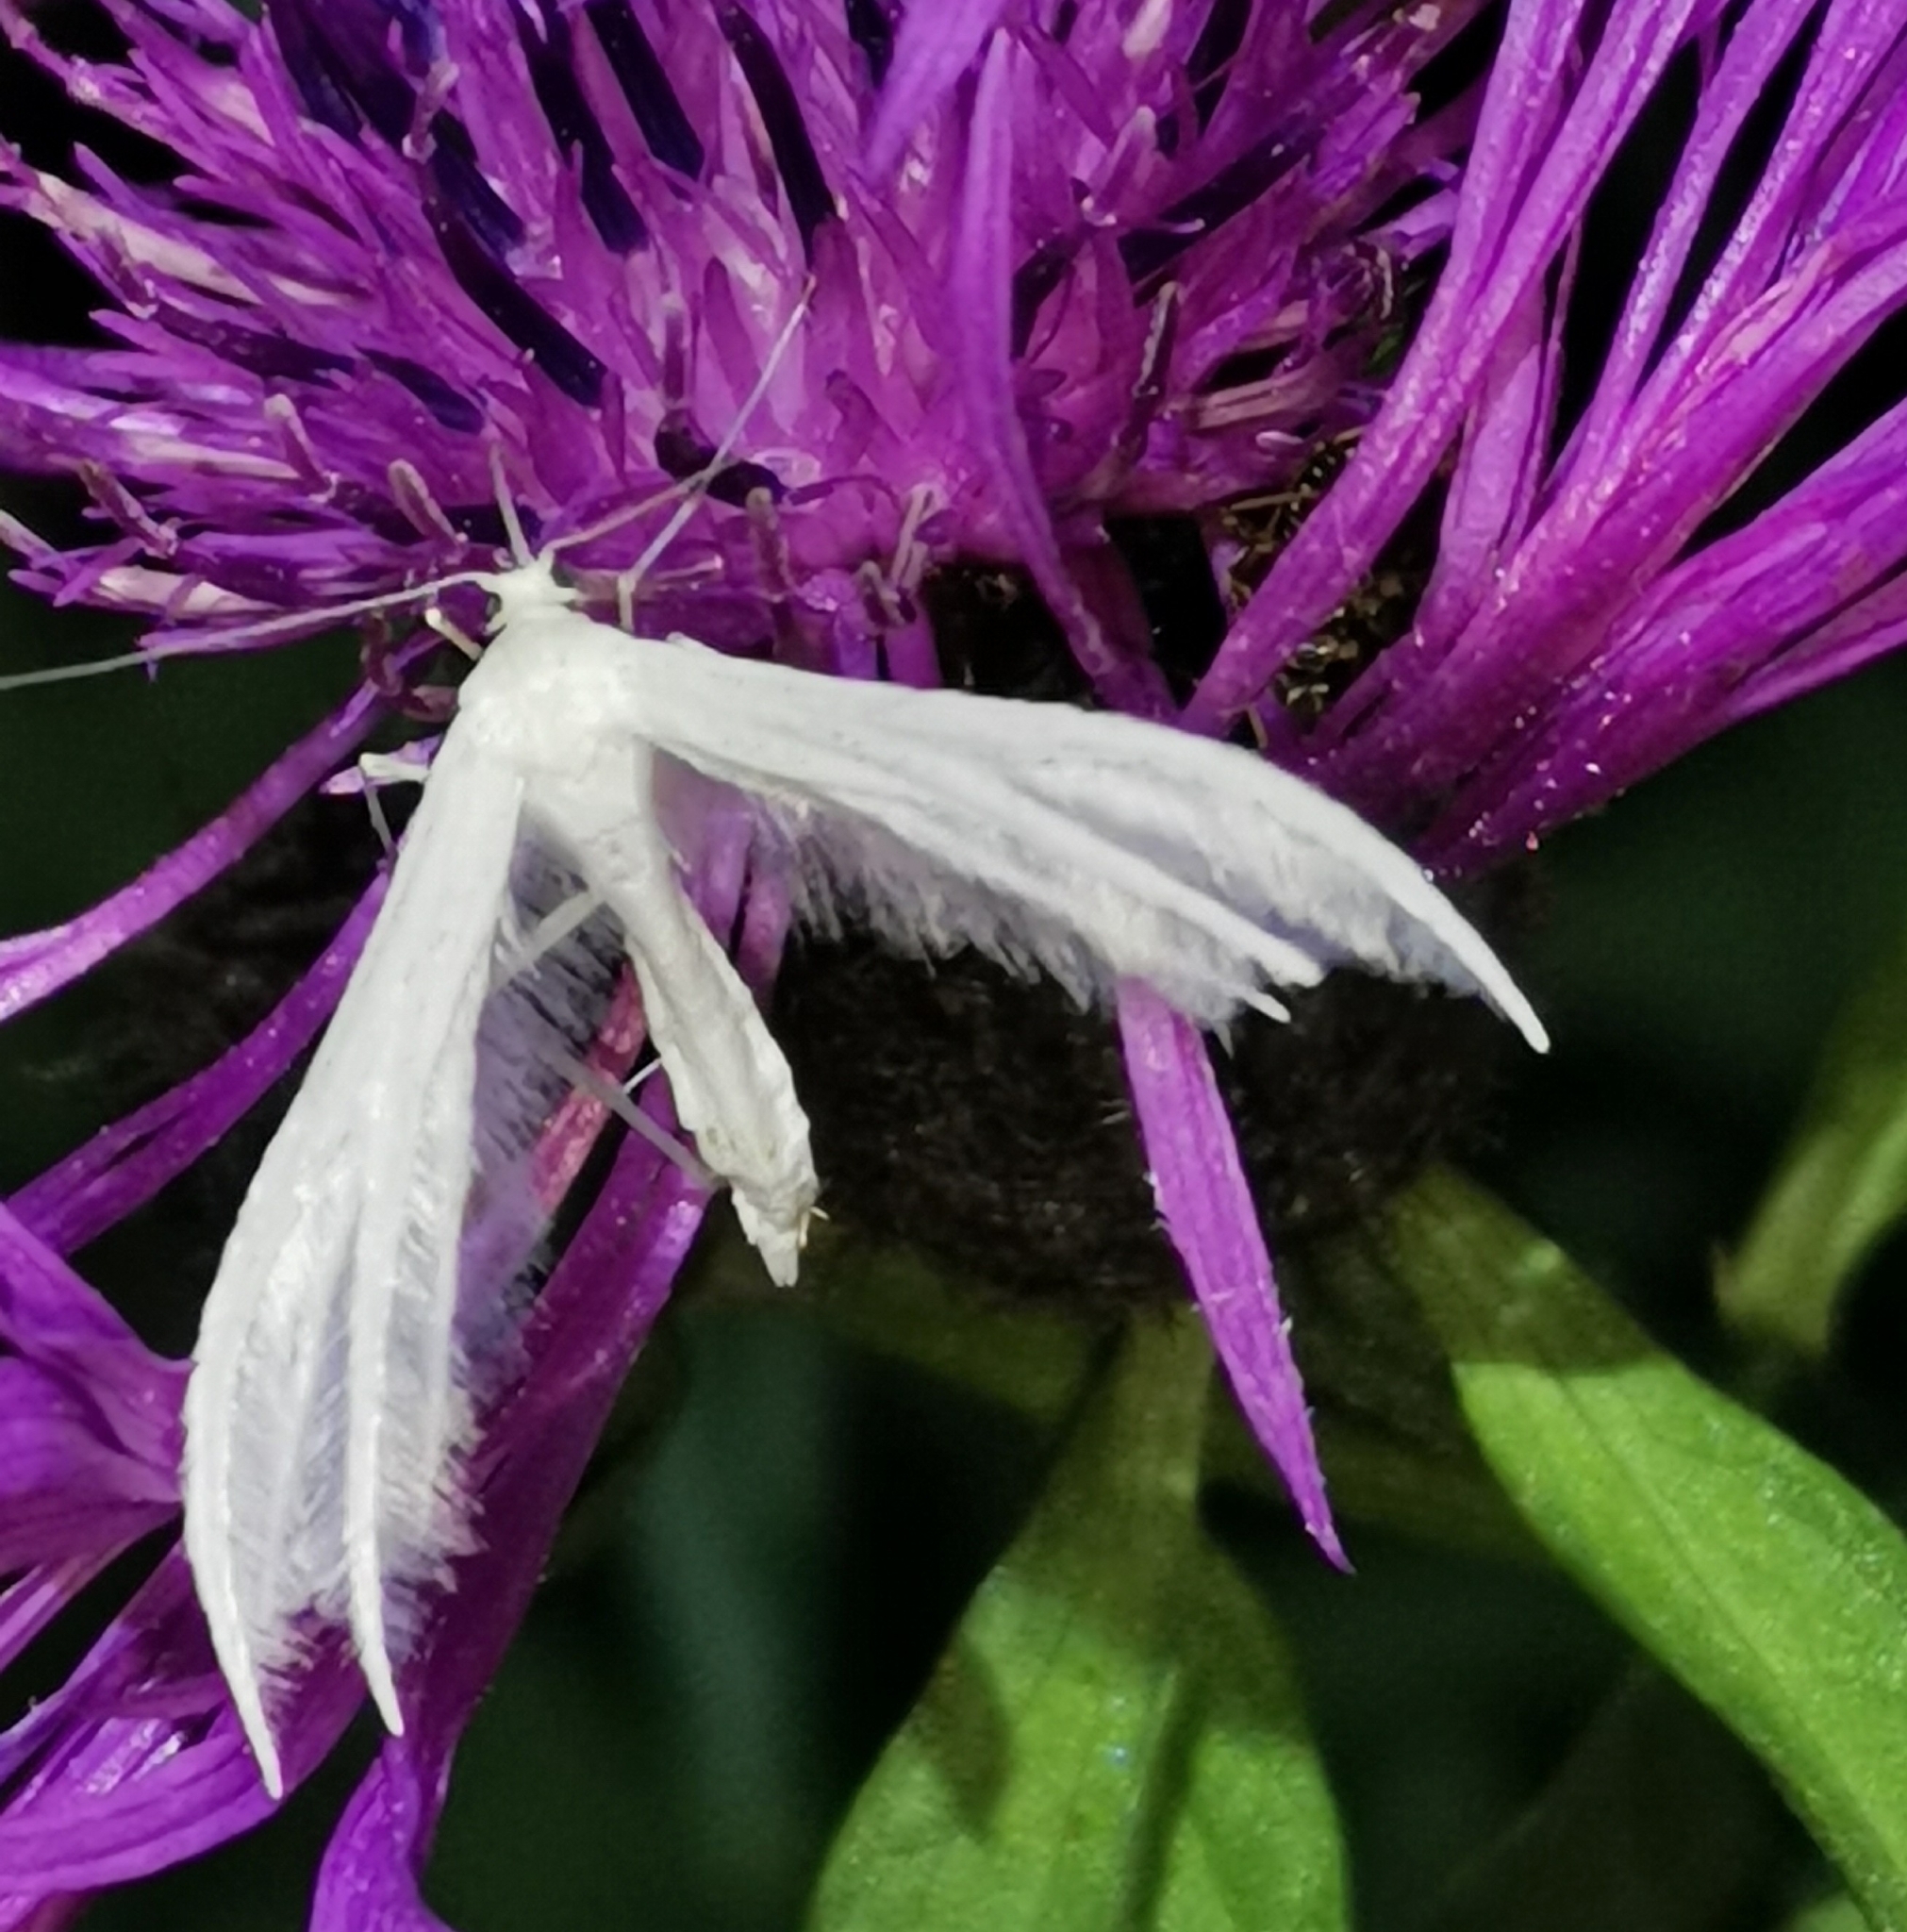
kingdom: Animalia
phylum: Arthropoda
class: Insecta
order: Lepidoptera
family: Pterophoridae
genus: Pterophorus
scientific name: Pterophorus pentadactyla
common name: White plume moth
